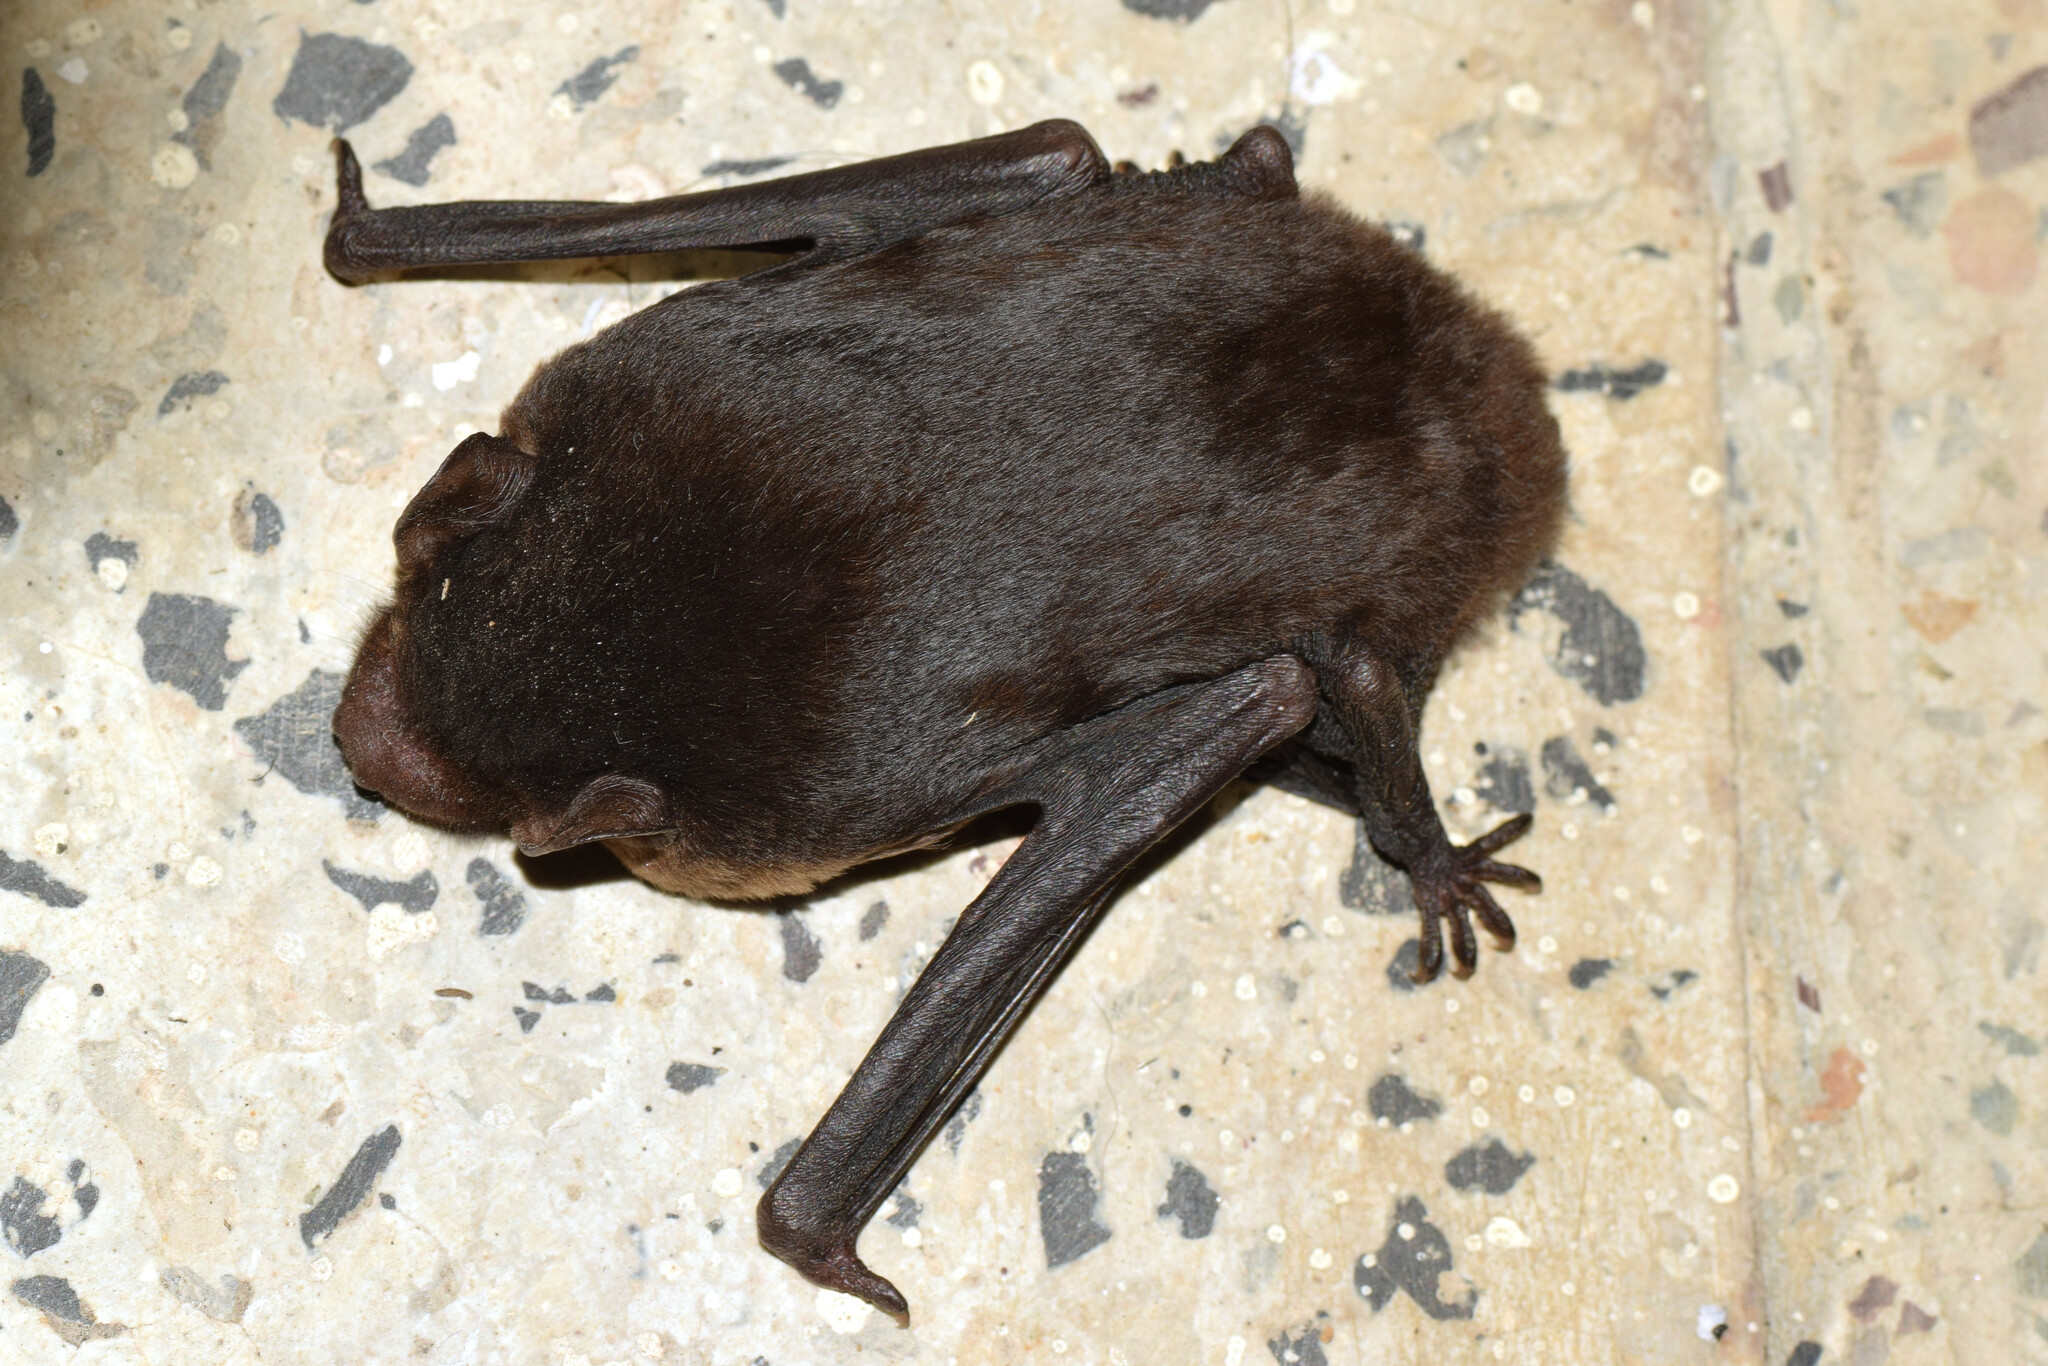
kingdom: Animalia
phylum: Chordata
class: Mammalia
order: Chiroptera
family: Vespertilionidae
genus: Mirostrellus
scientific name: Mirostrellus joffrei
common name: Anthony's pipistrelle
